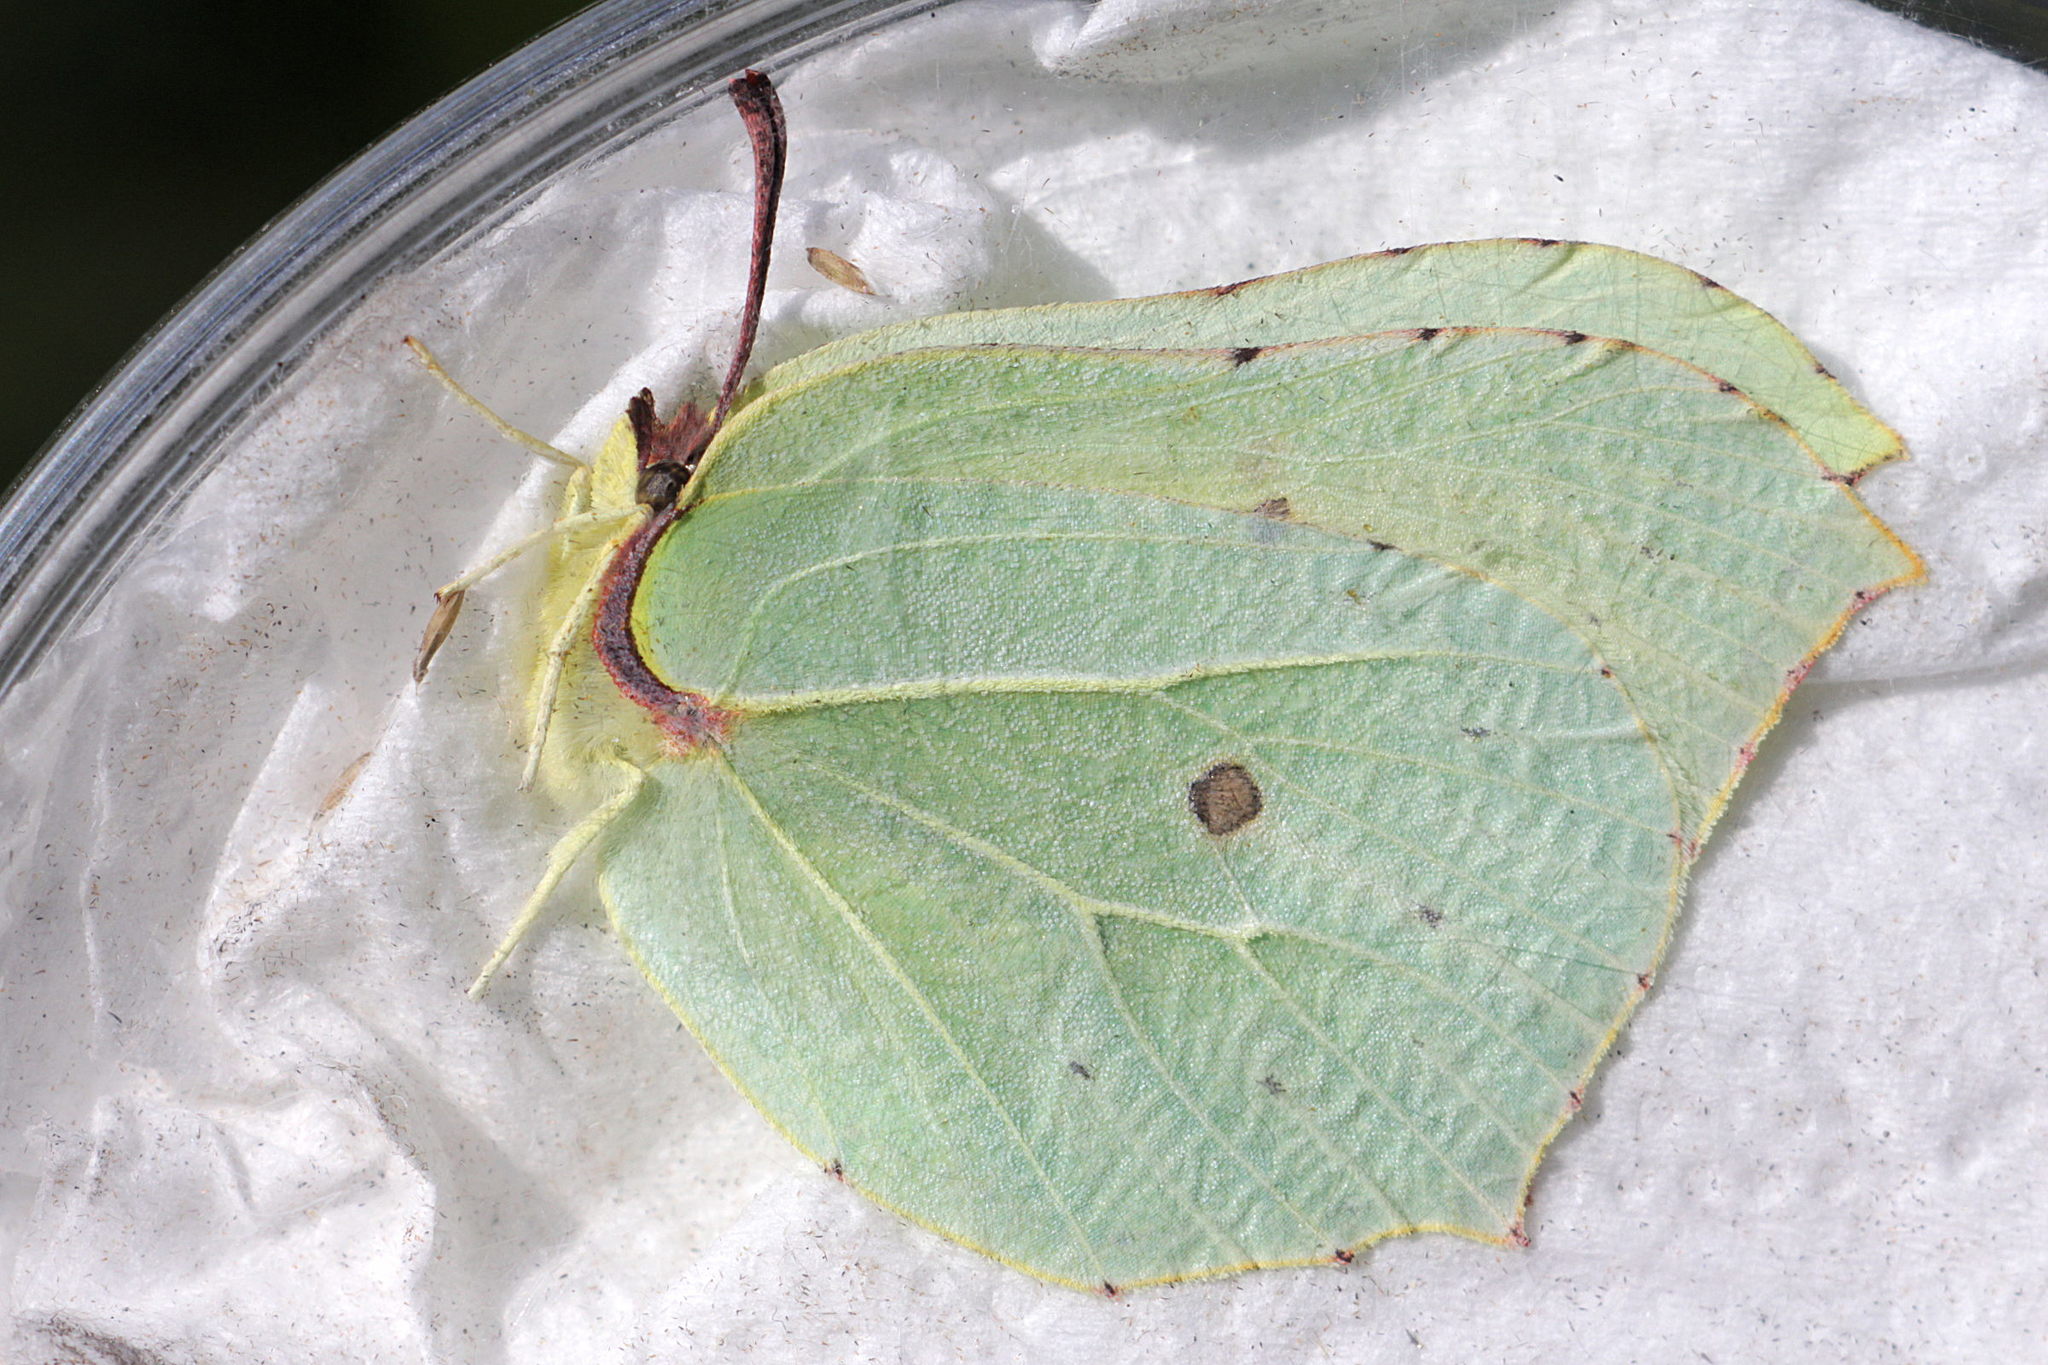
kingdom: Animalia
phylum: Arthropoda
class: Insecta
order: Lepidoptera
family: Pieridae
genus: Gonepteryx
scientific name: Gonepteryx rhamni
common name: Brimstone
